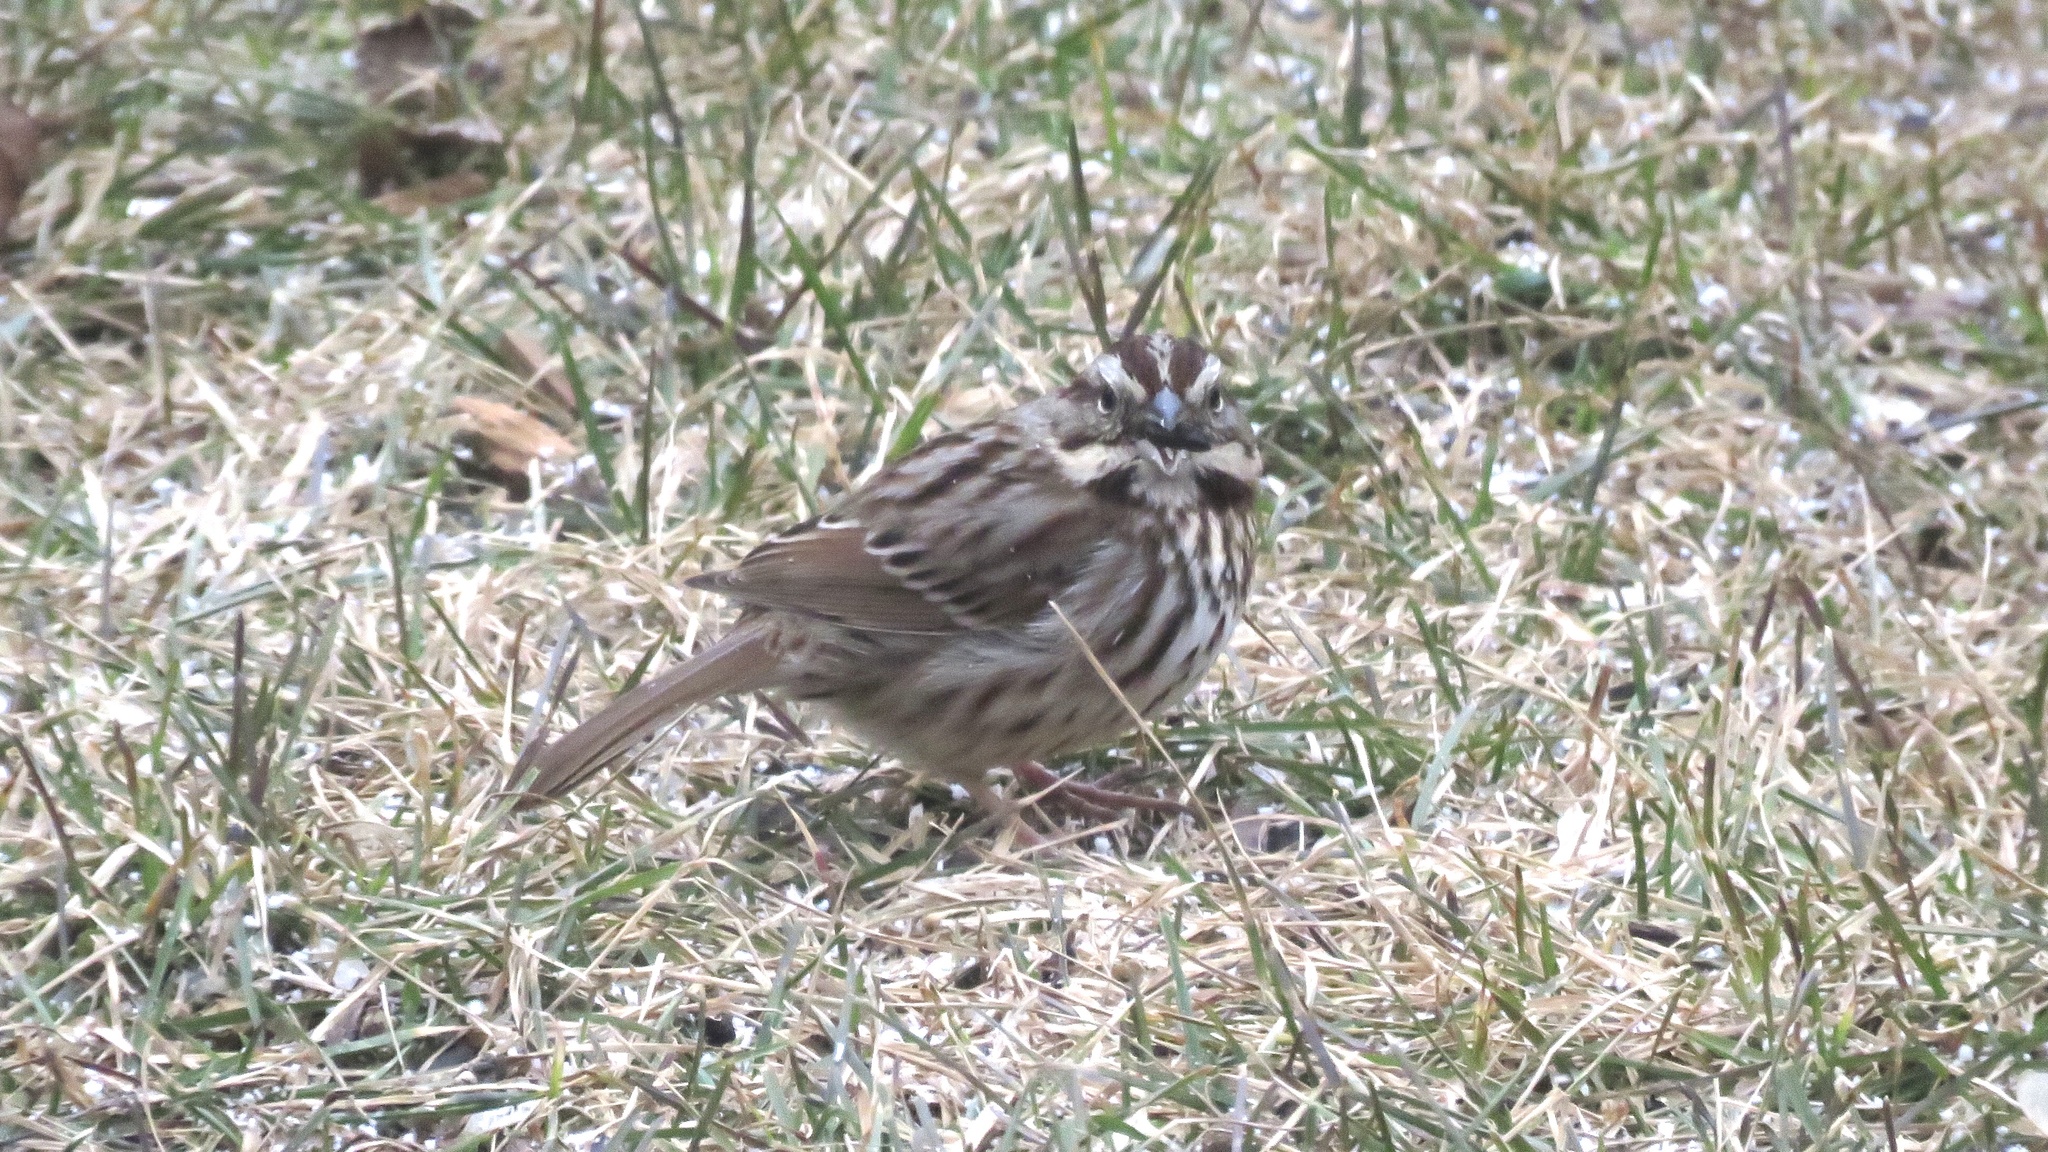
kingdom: Animalia
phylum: Chordata
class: Aves
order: Passeriformes
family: Passerellidae
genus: Melospiza
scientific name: Melospiza melodia
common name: Song sparrow
